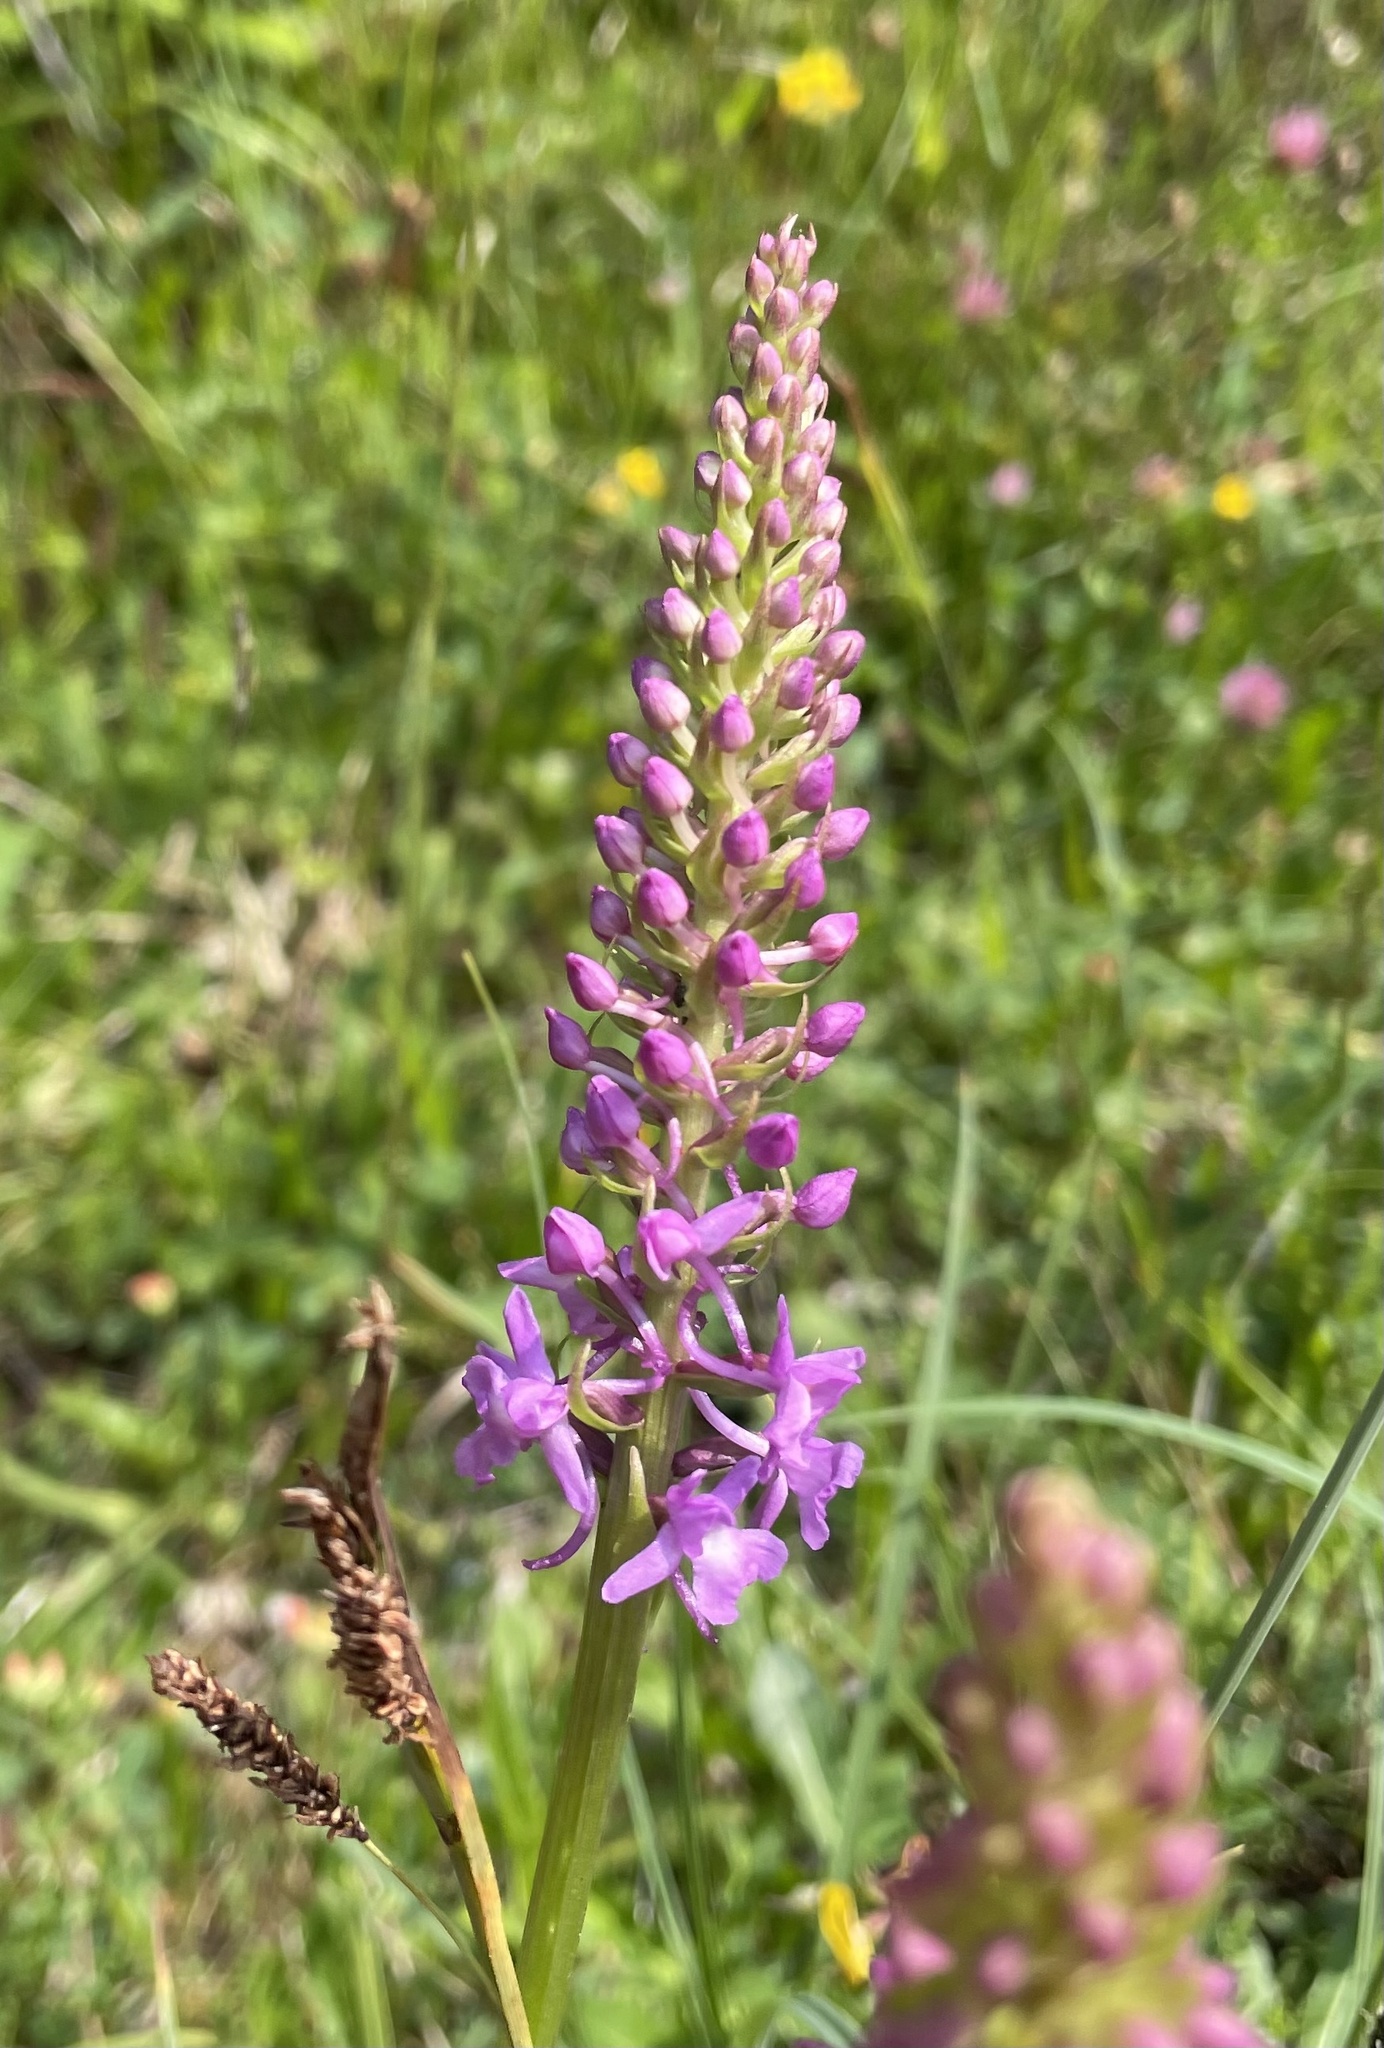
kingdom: Plantae
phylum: Tracheophyta
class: Liliopsida
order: Asparagales
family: Orchidaceae
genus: Gymnadenia
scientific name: Gymnadenia conopsea
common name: Fragrant orchid
